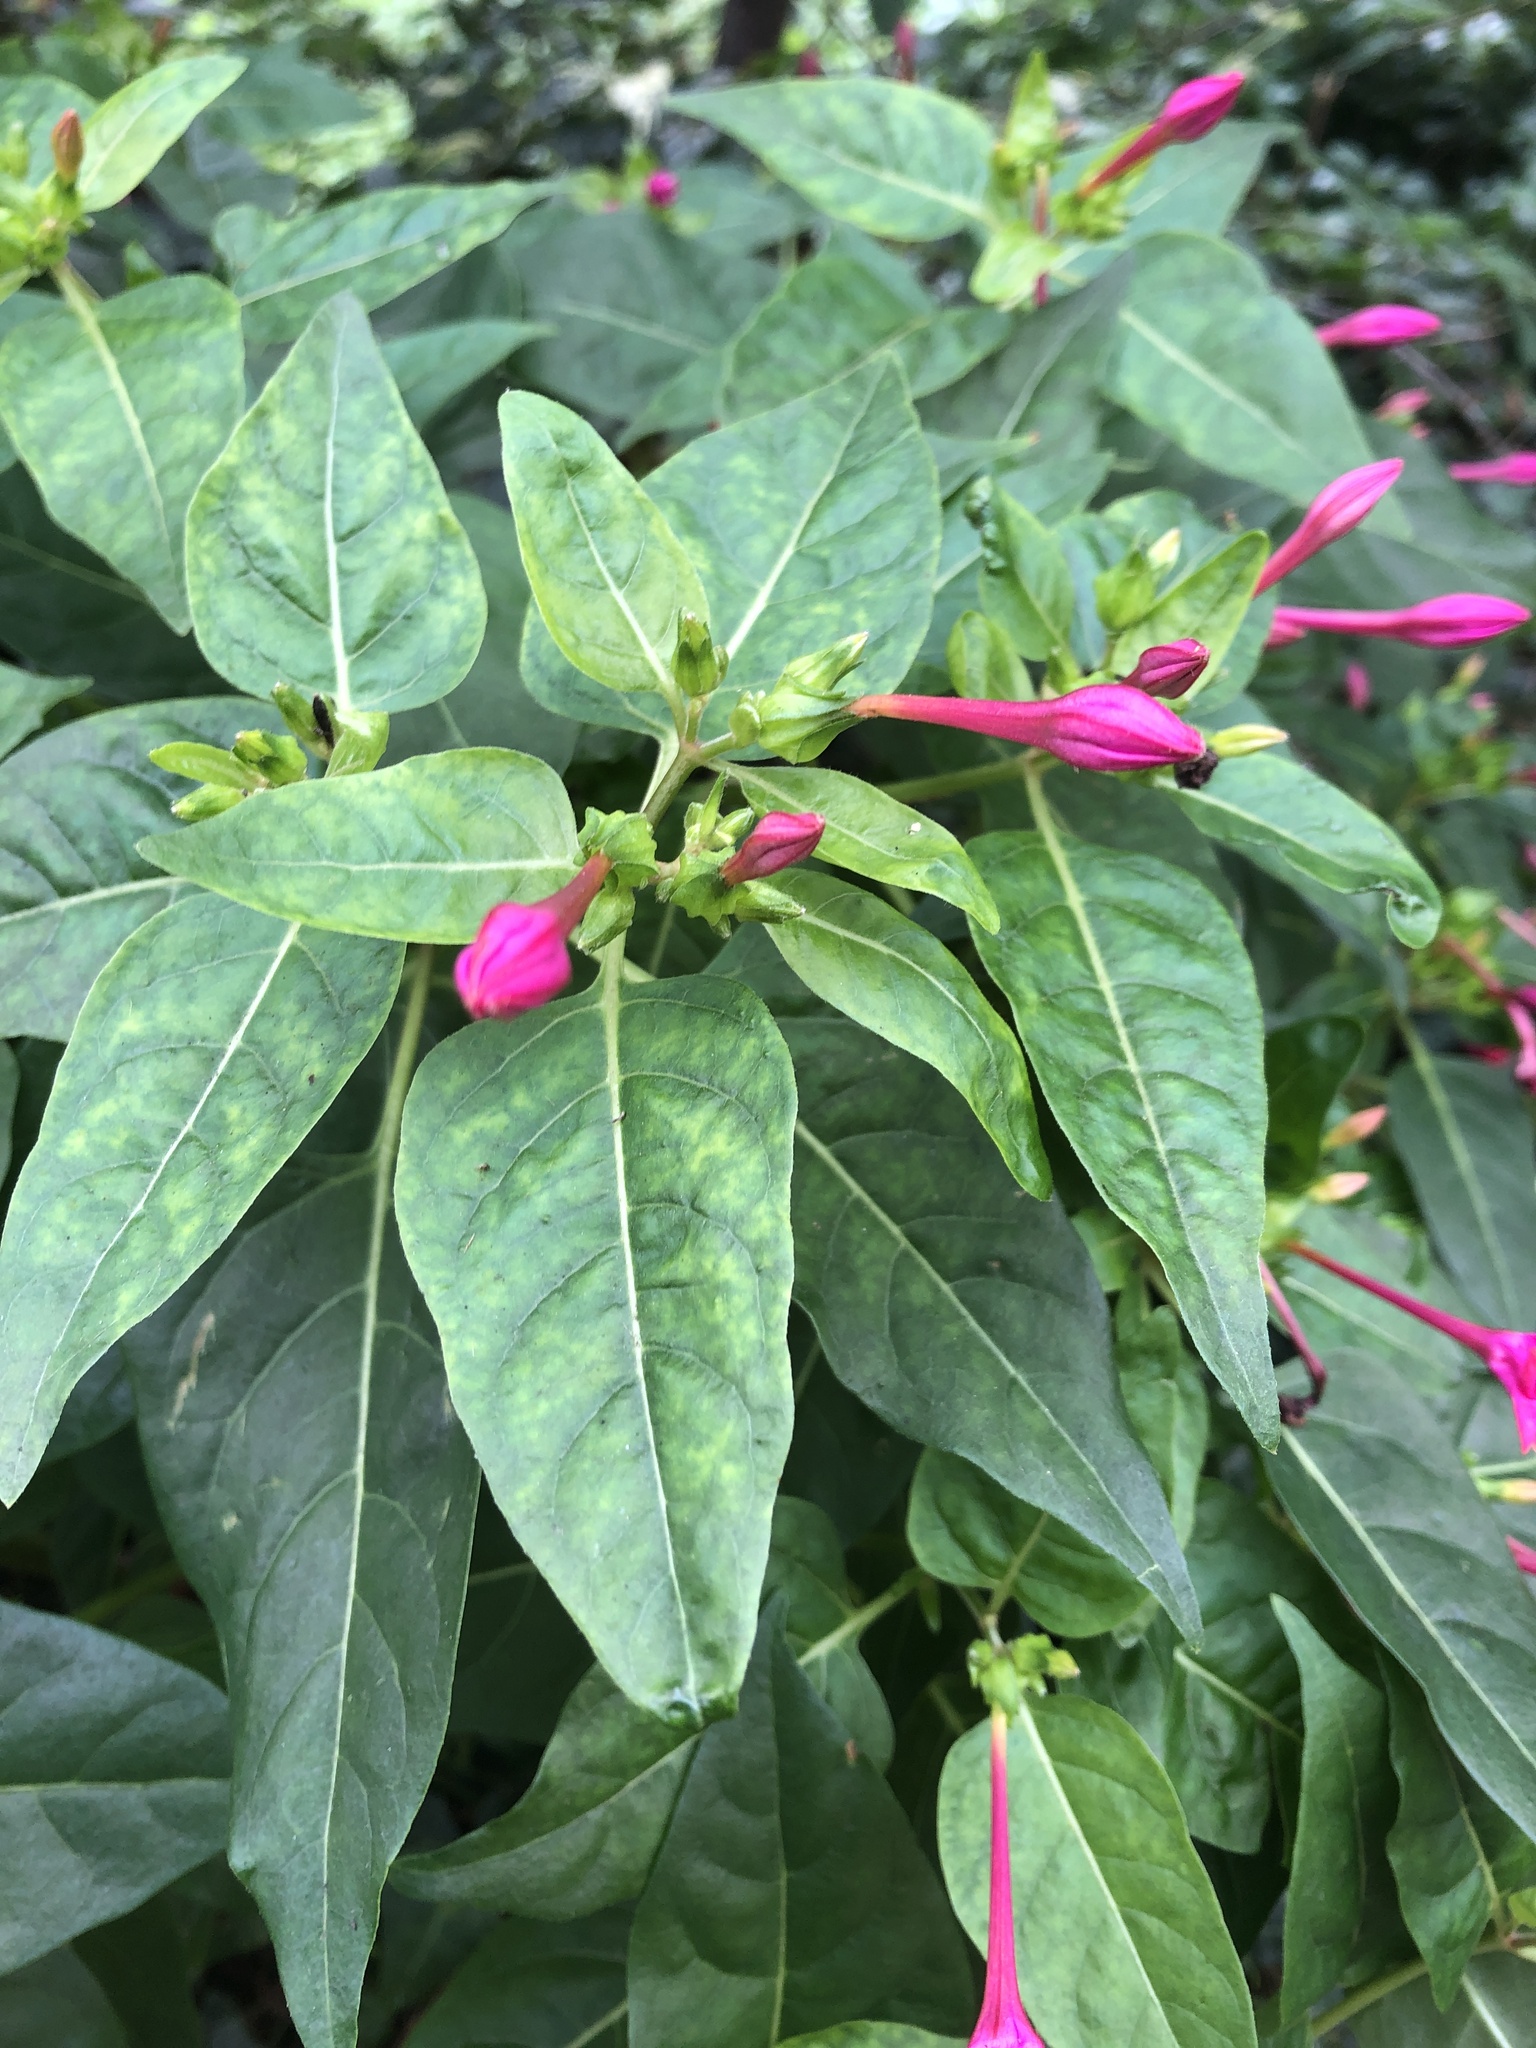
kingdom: Plantae
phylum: Tracheophyta
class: Magnoliopsida
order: Caryophyllales
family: Nyctaginaceae
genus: Mirabilis
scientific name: Mirabilis jalapa
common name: Marvel-of-peru
